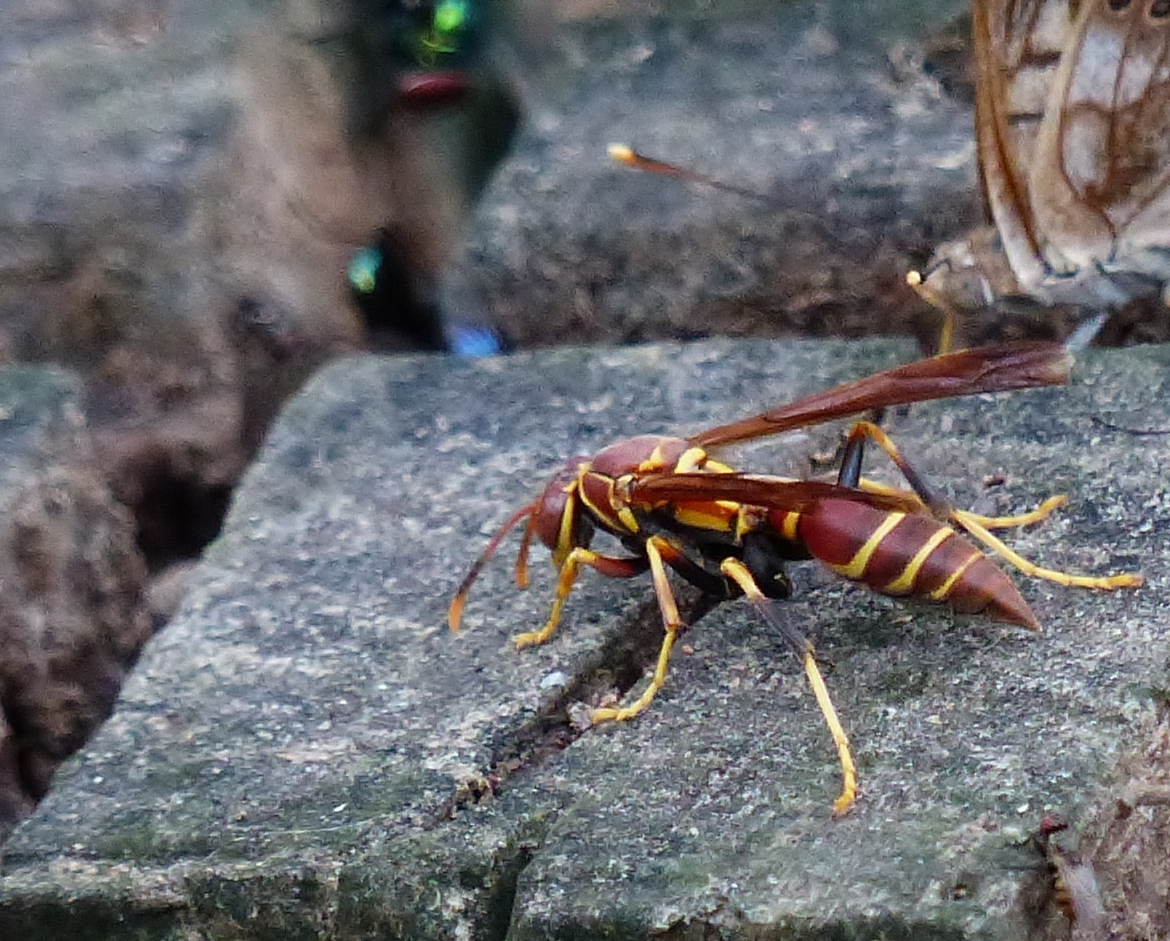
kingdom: Animalia
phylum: Arthropoda
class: Insecta
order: Hymenoptera
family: Eumenidae
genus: Polistes
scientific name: Polistes instabilis
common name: Unstable paper wasp
